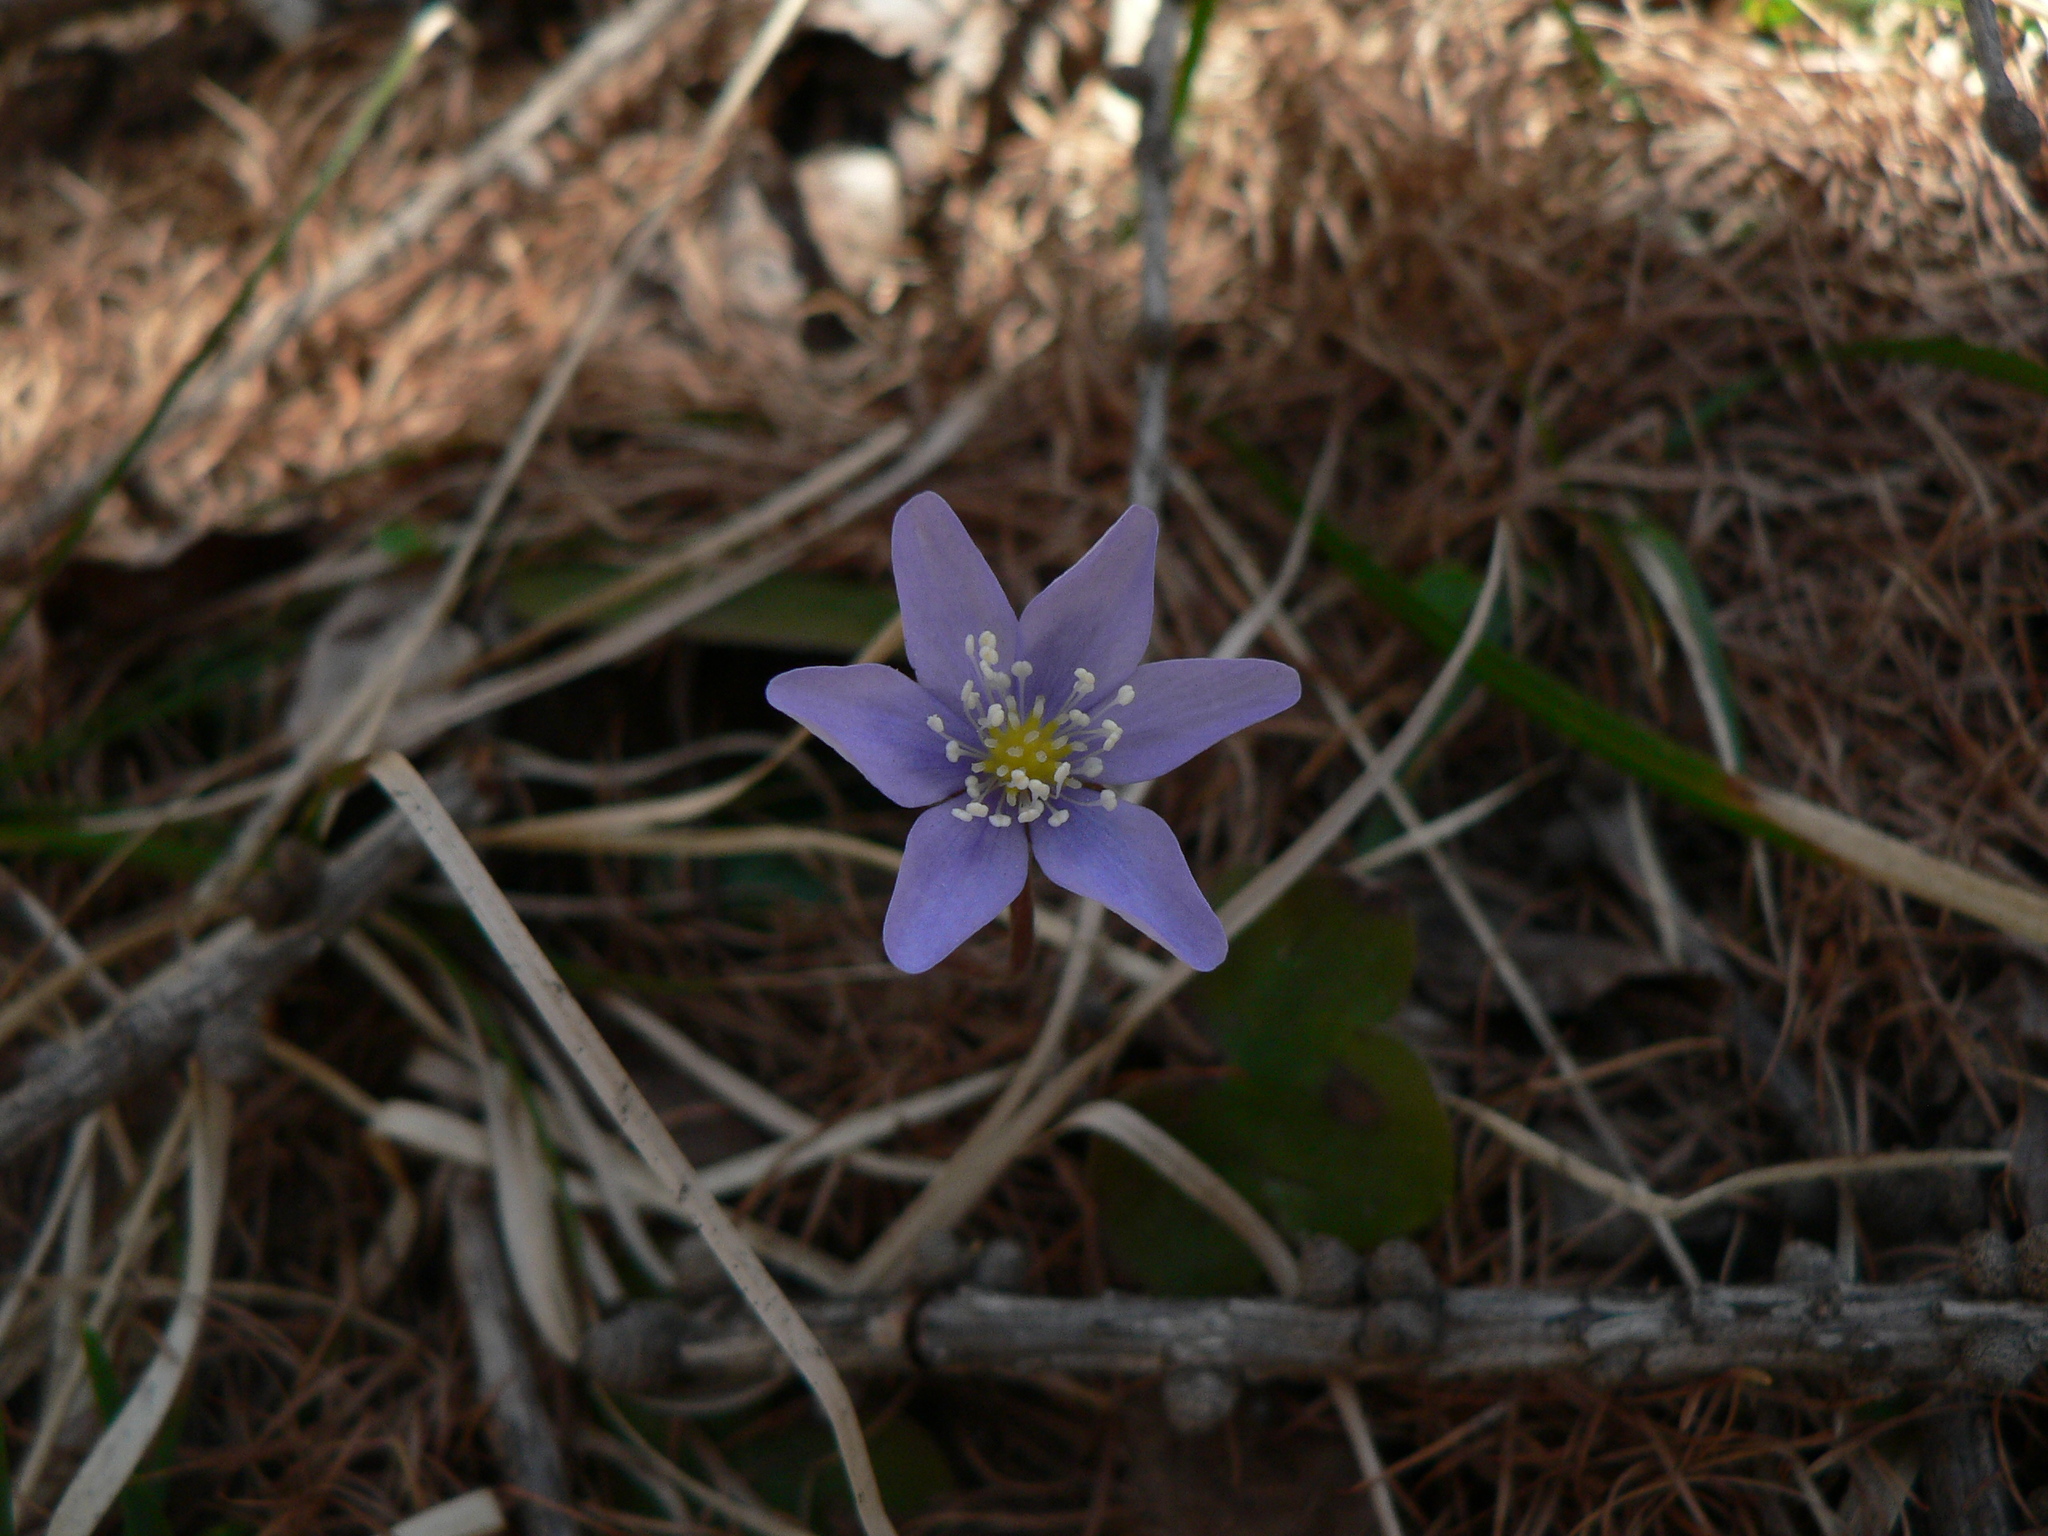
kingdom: Plantae
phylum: Tracheophyta
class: Magnoliopsida
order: Ranunculales
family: Ranunculaceae
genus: Hepatica
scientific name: Hepatica nobilis
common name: Liverleaf
